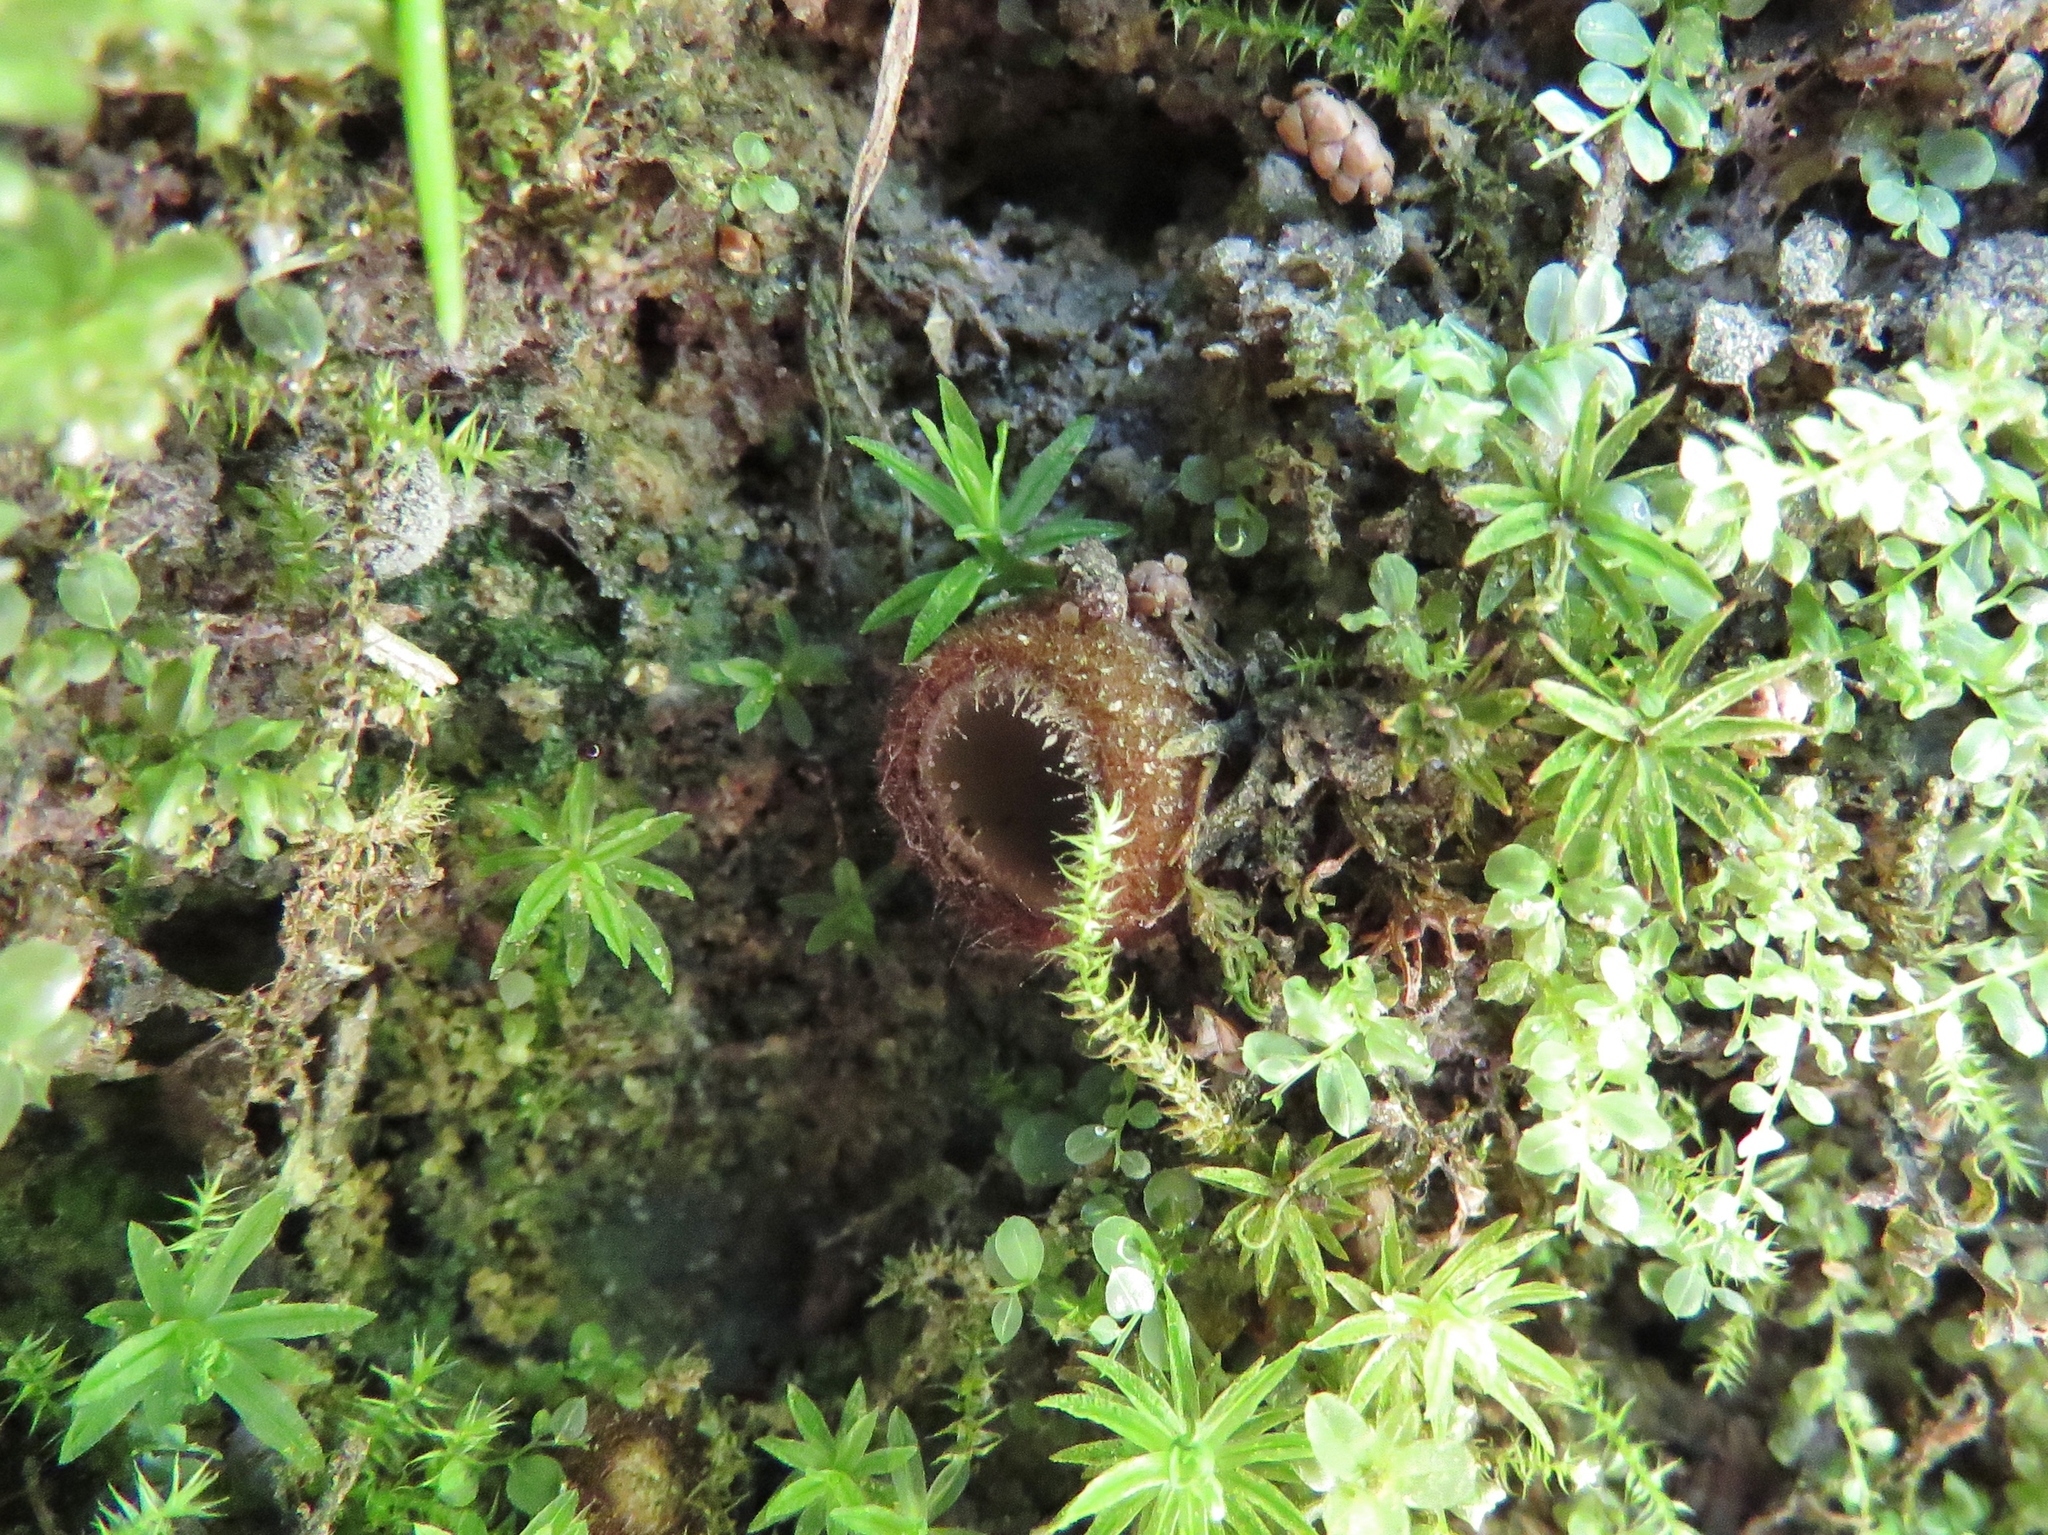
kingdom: Fungi
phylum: Ascomycota
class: Pezizomycetes
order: Pezizales
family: Pyronemataceae
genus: Humaria
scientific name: Humaria hemisphaerica
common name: Glazed cup
